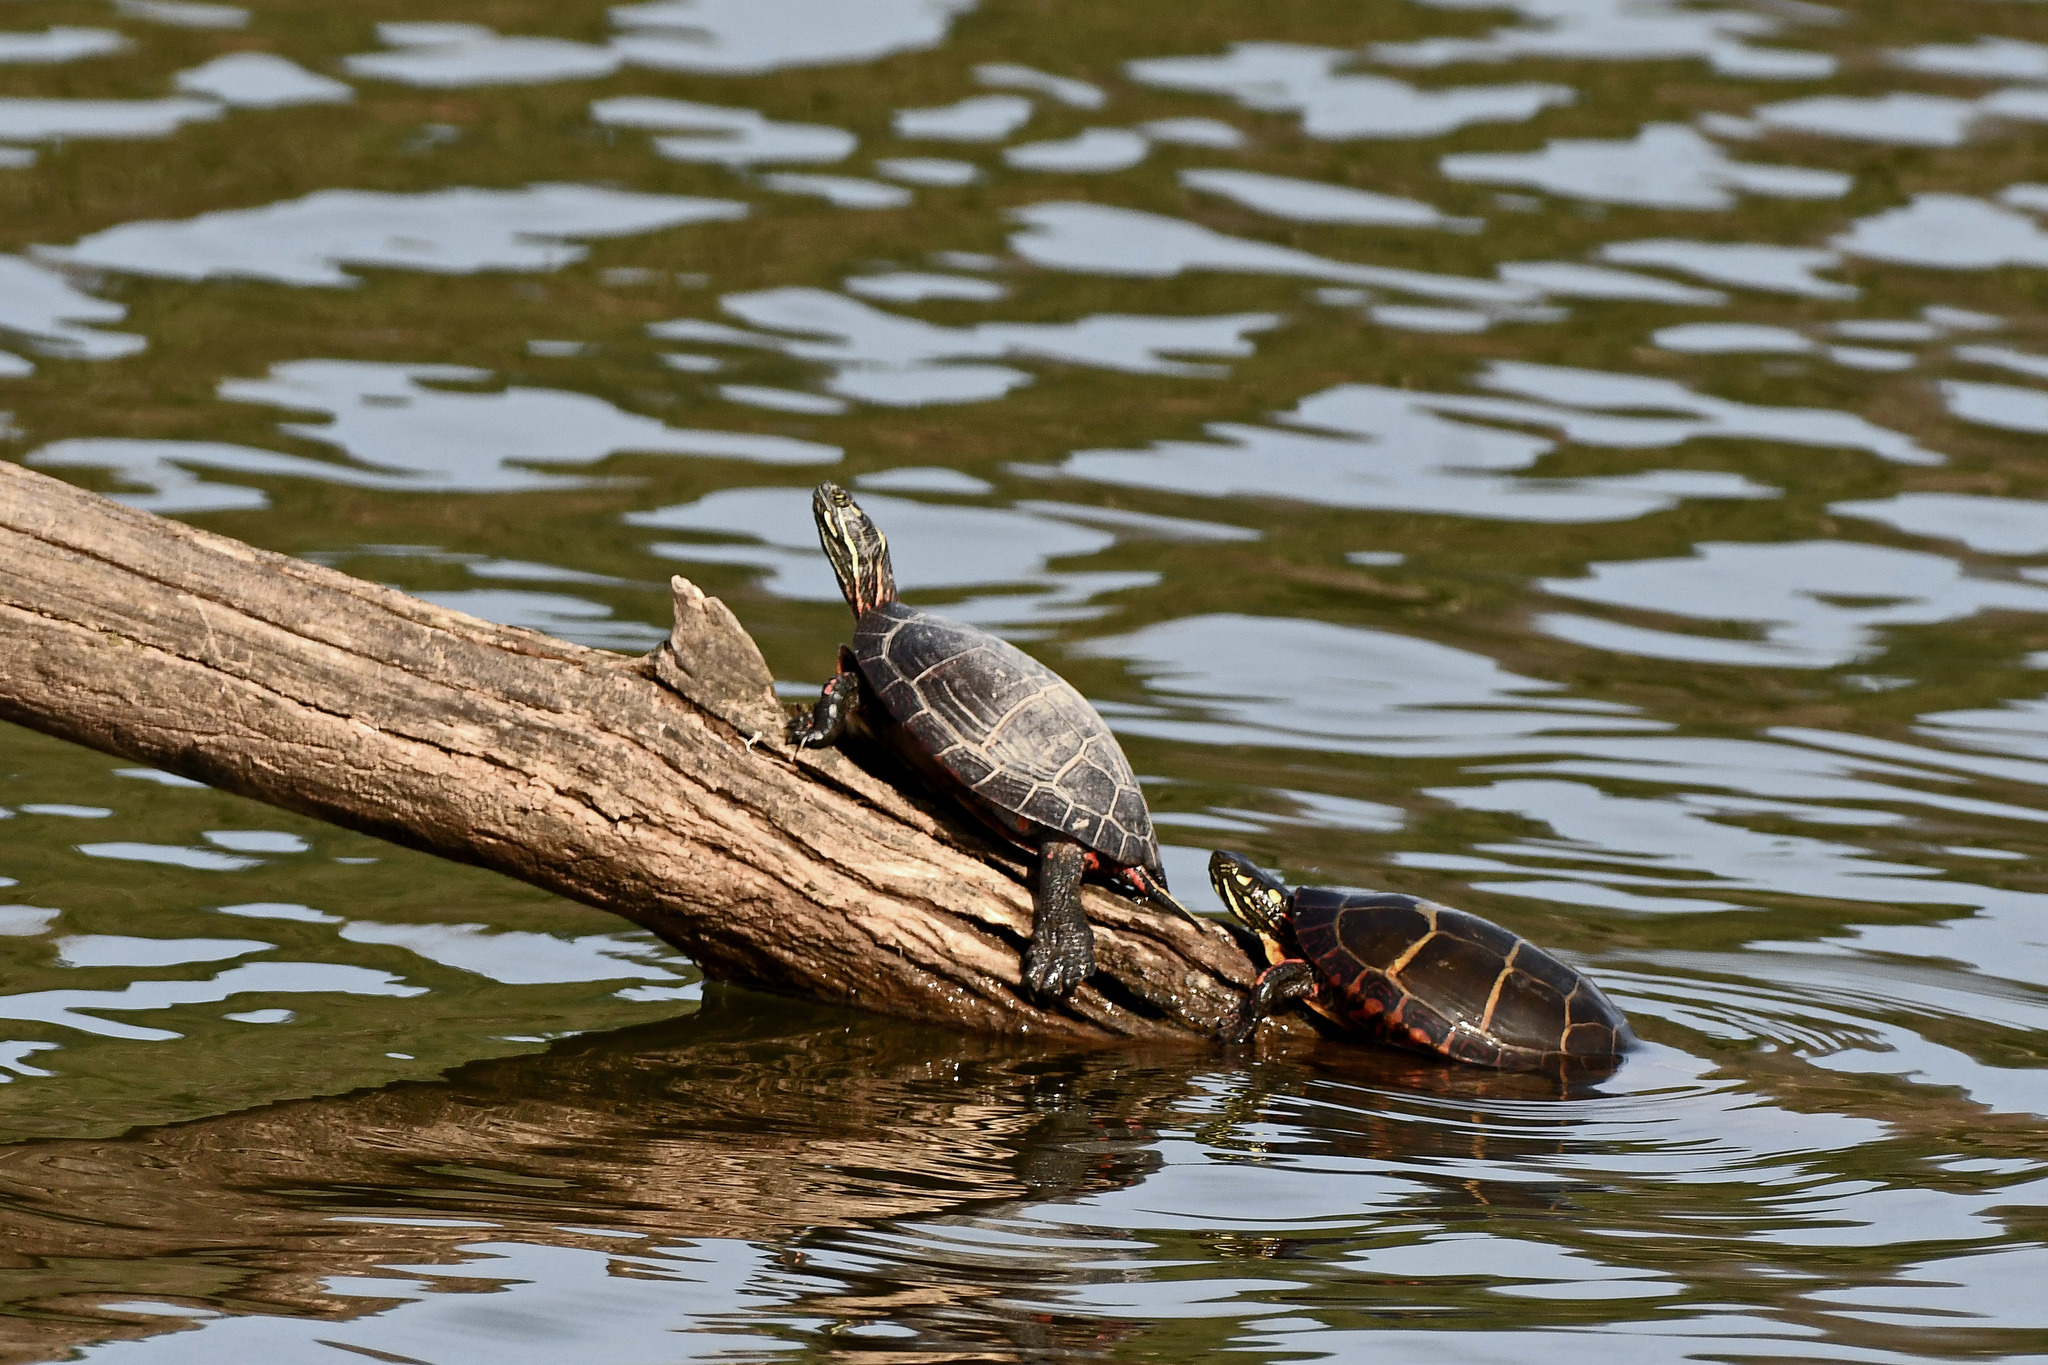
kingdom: Animalia
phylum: Chordata
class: Testudines
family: Emydidae
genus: Chrysemys
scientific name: Chrysemys picta
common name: Painted turtle
